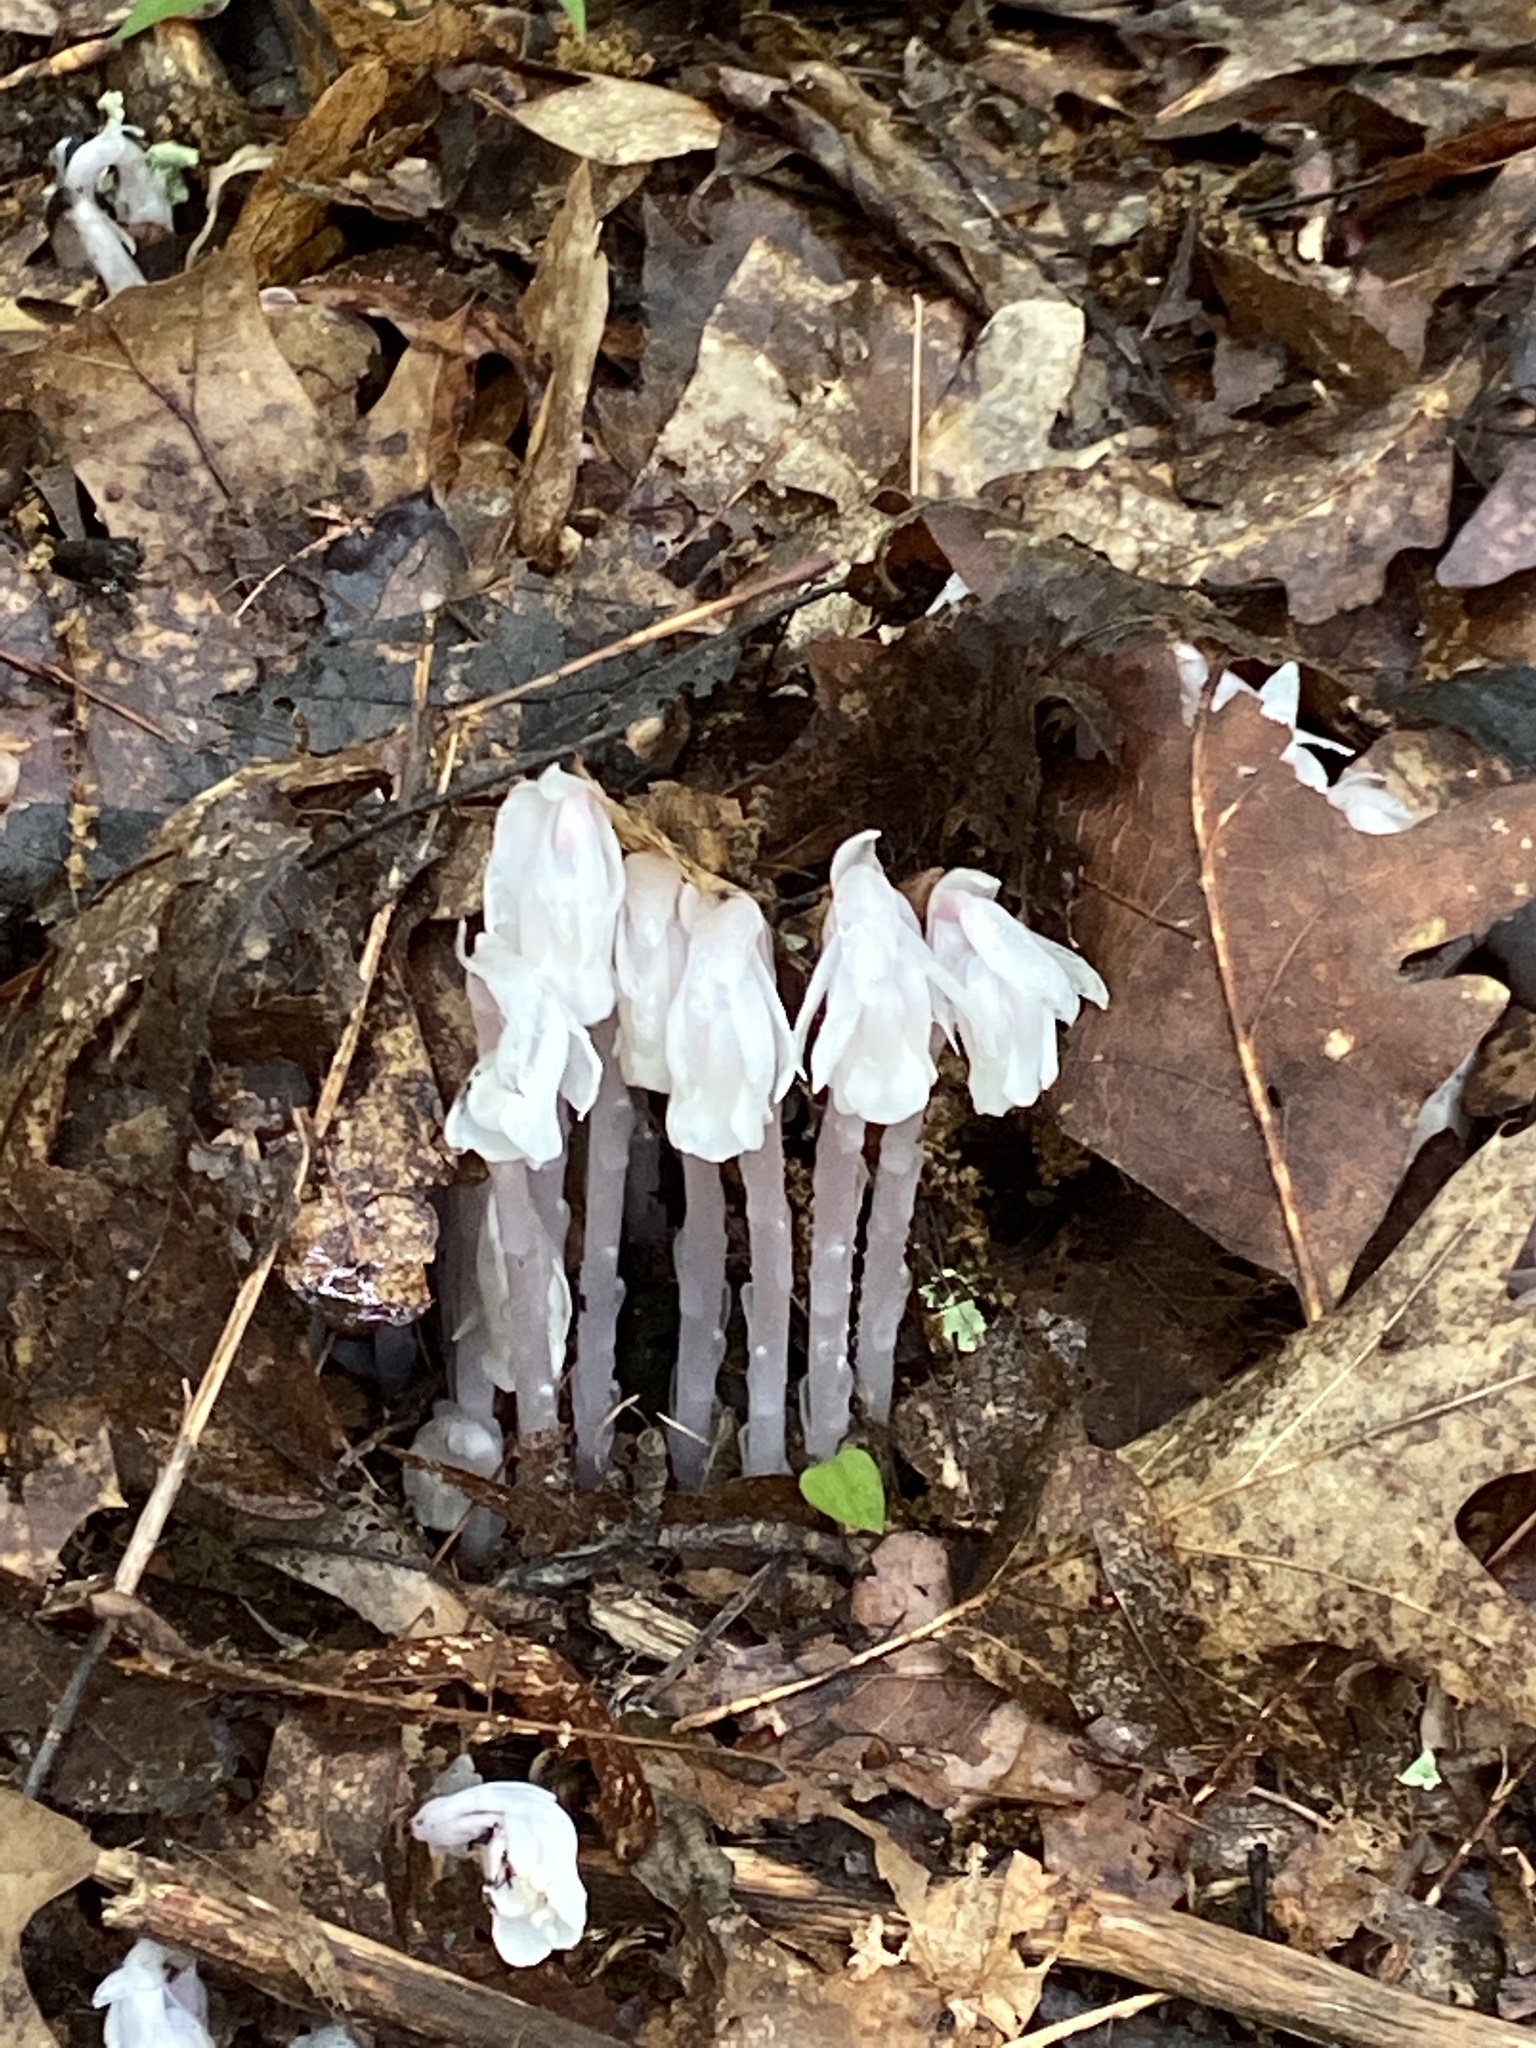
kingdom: Plantae
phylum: Tracheophyta
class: Magnoliopsida
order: Ericales
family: Ericaceae
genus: Monotropa
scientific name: Monotropa uniflora
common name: Convulsion root
